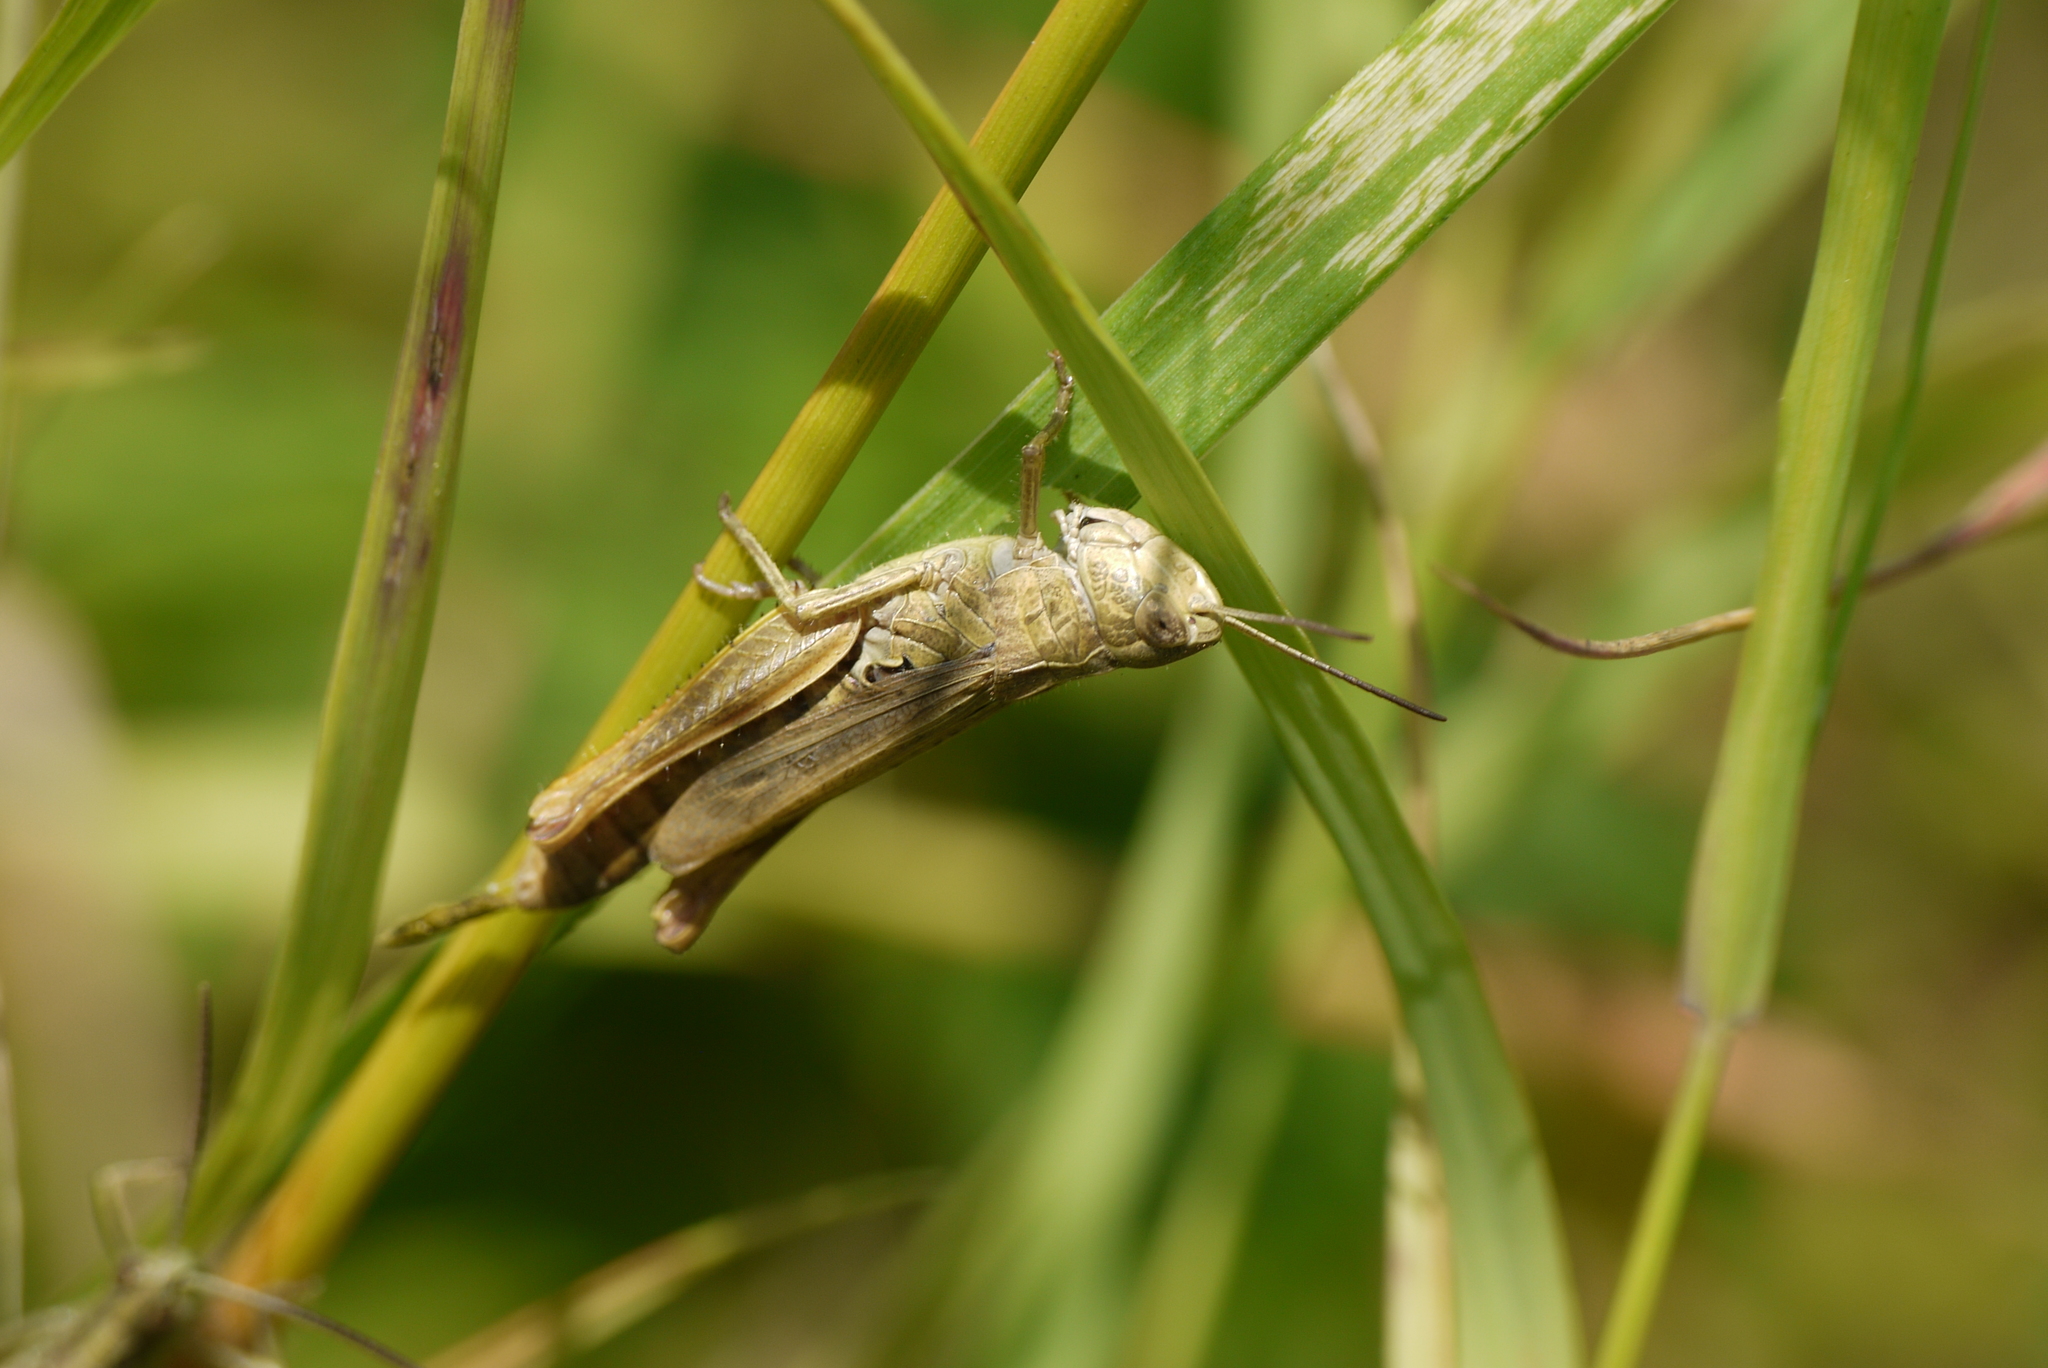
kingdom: Animalia
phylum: Arthropoda
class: Insecta
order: Orthoptera
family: Acrididae
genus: Chorthippus
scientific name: Chorthippus apricarius
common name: Upland field grasshopper
